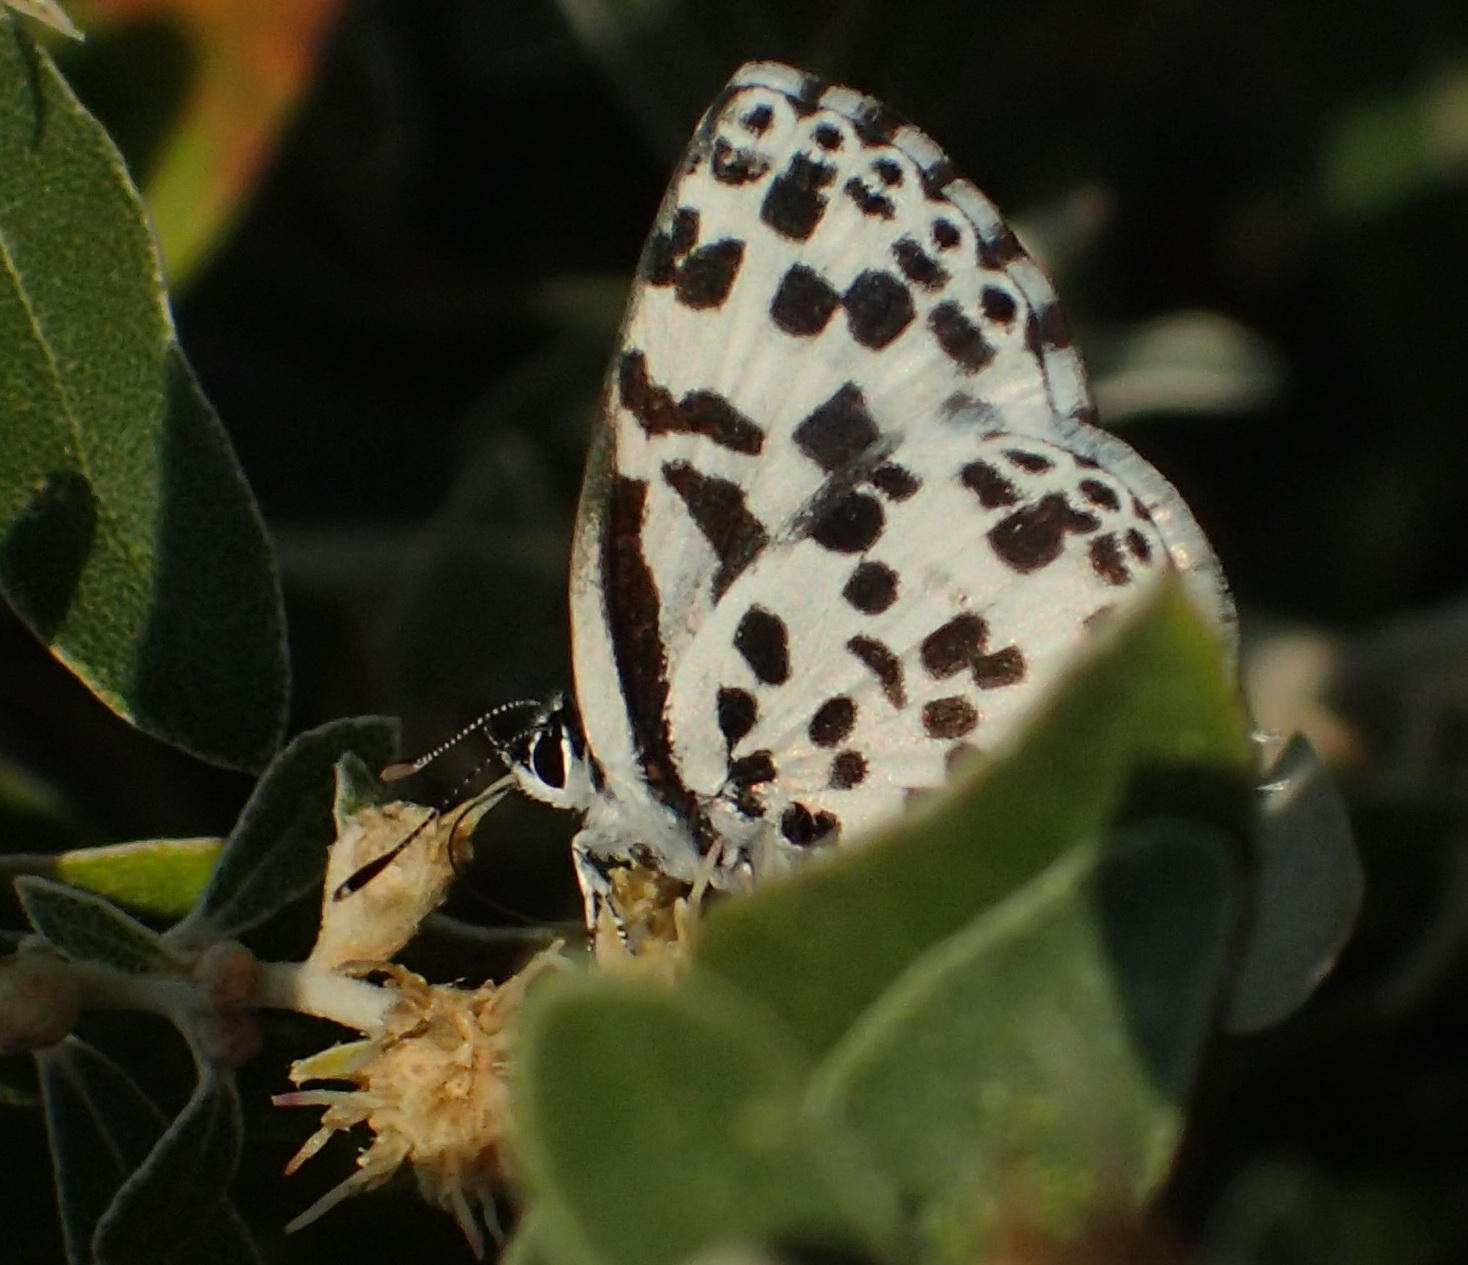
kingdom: Animalia
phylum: Arthropoda
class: Insecta
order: Lepidoptera
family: Lycaenidae
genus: Zintha
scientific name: Zintha hintza
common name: Hintza pierrot
